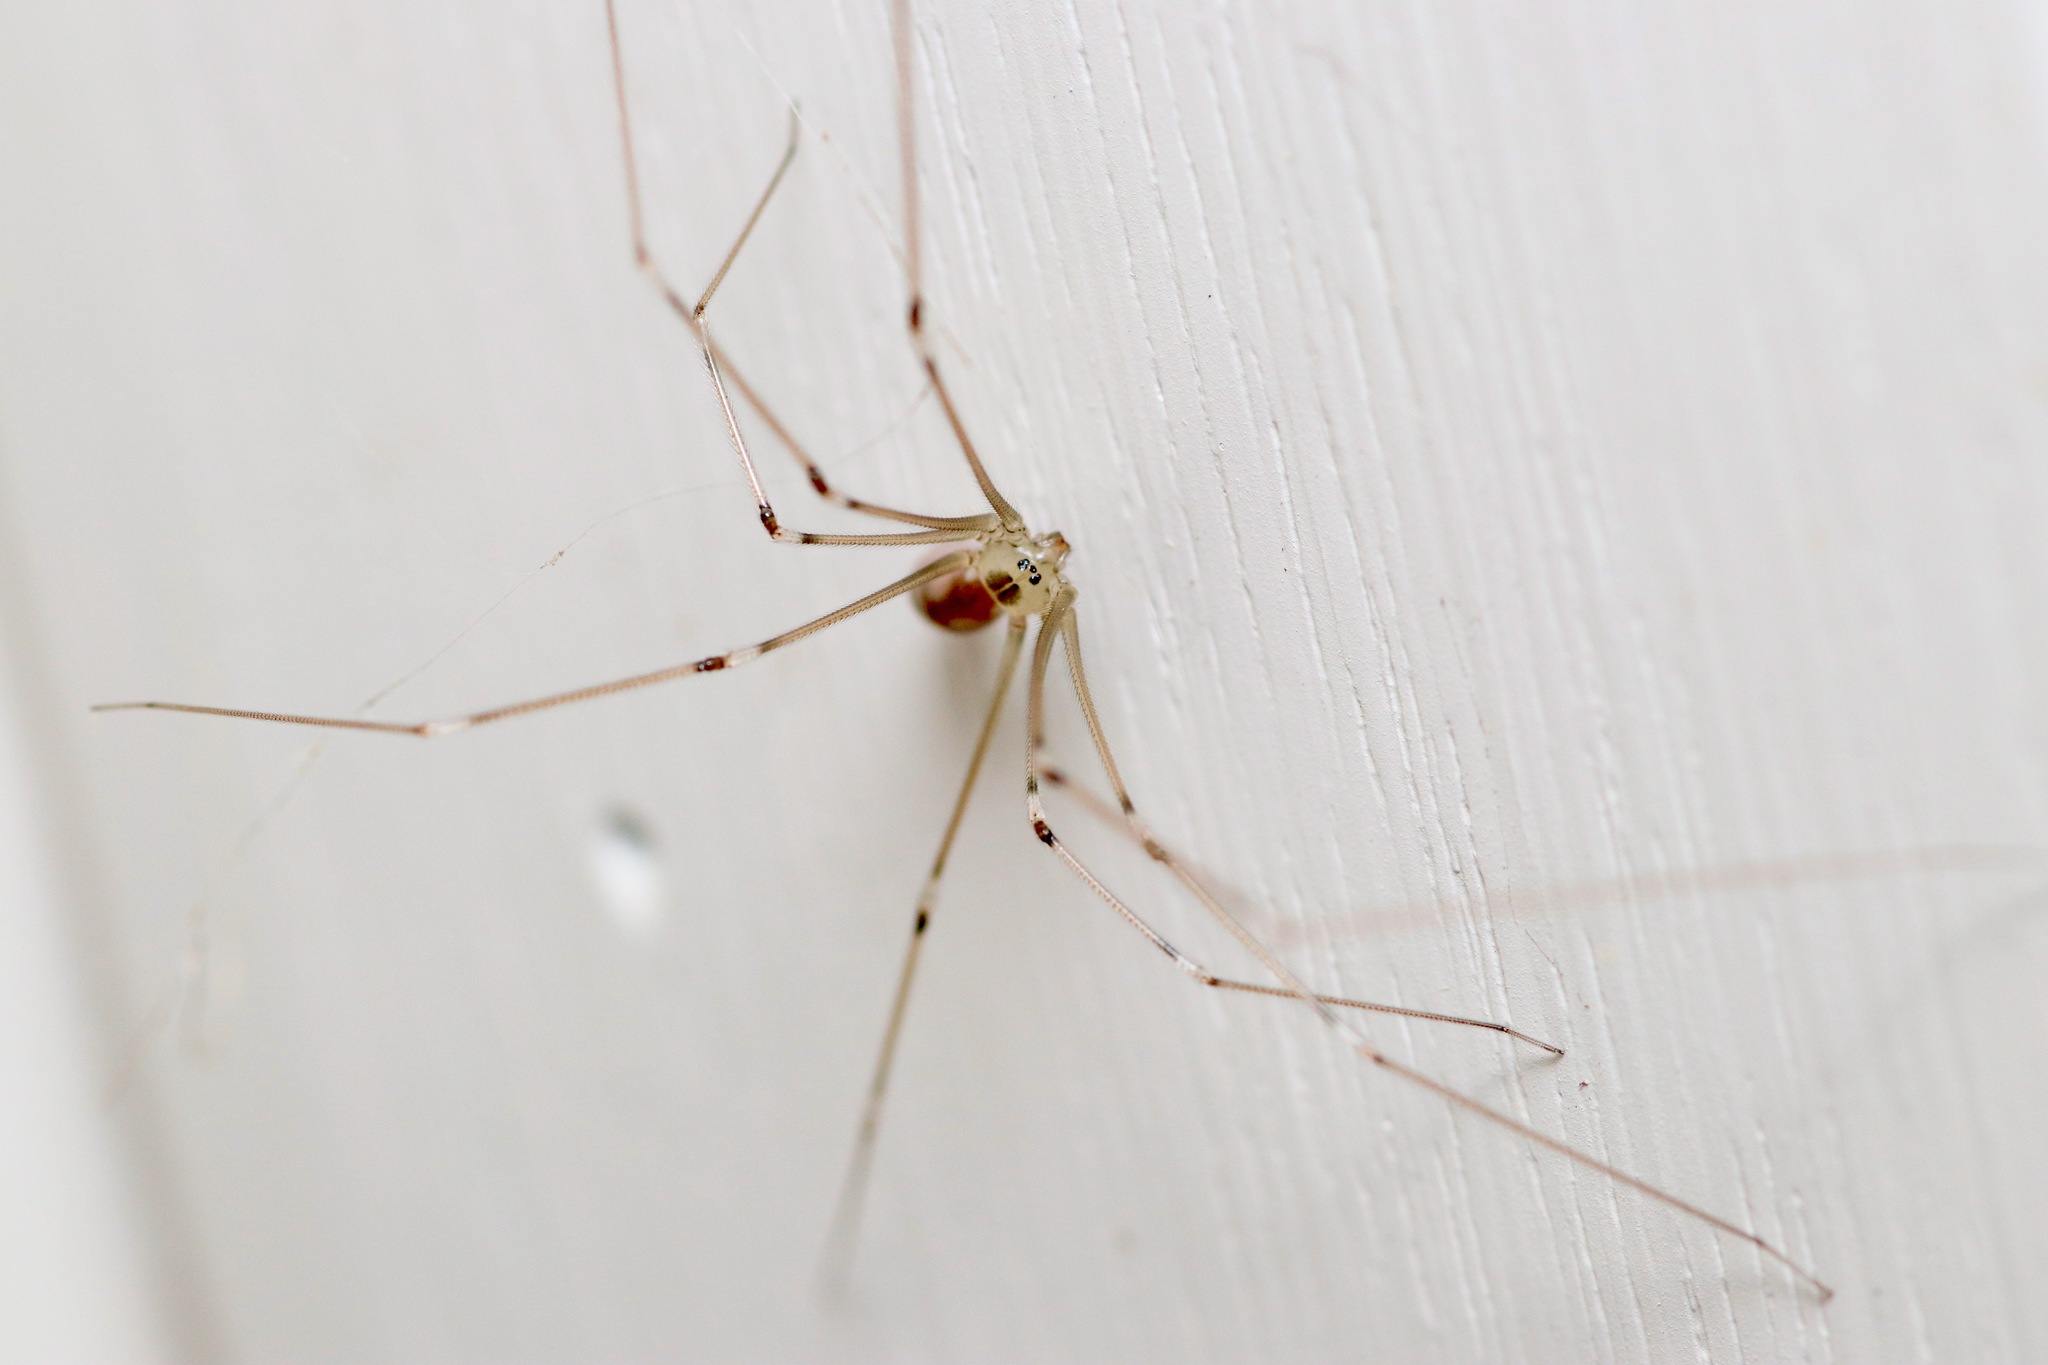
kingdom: Animalia
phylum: Arthropoda
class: Arachnida
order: Araneae
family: Pholcidae
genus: Pholcus
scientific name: Pholcus phalangioides
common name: Longbodied cellar spider
